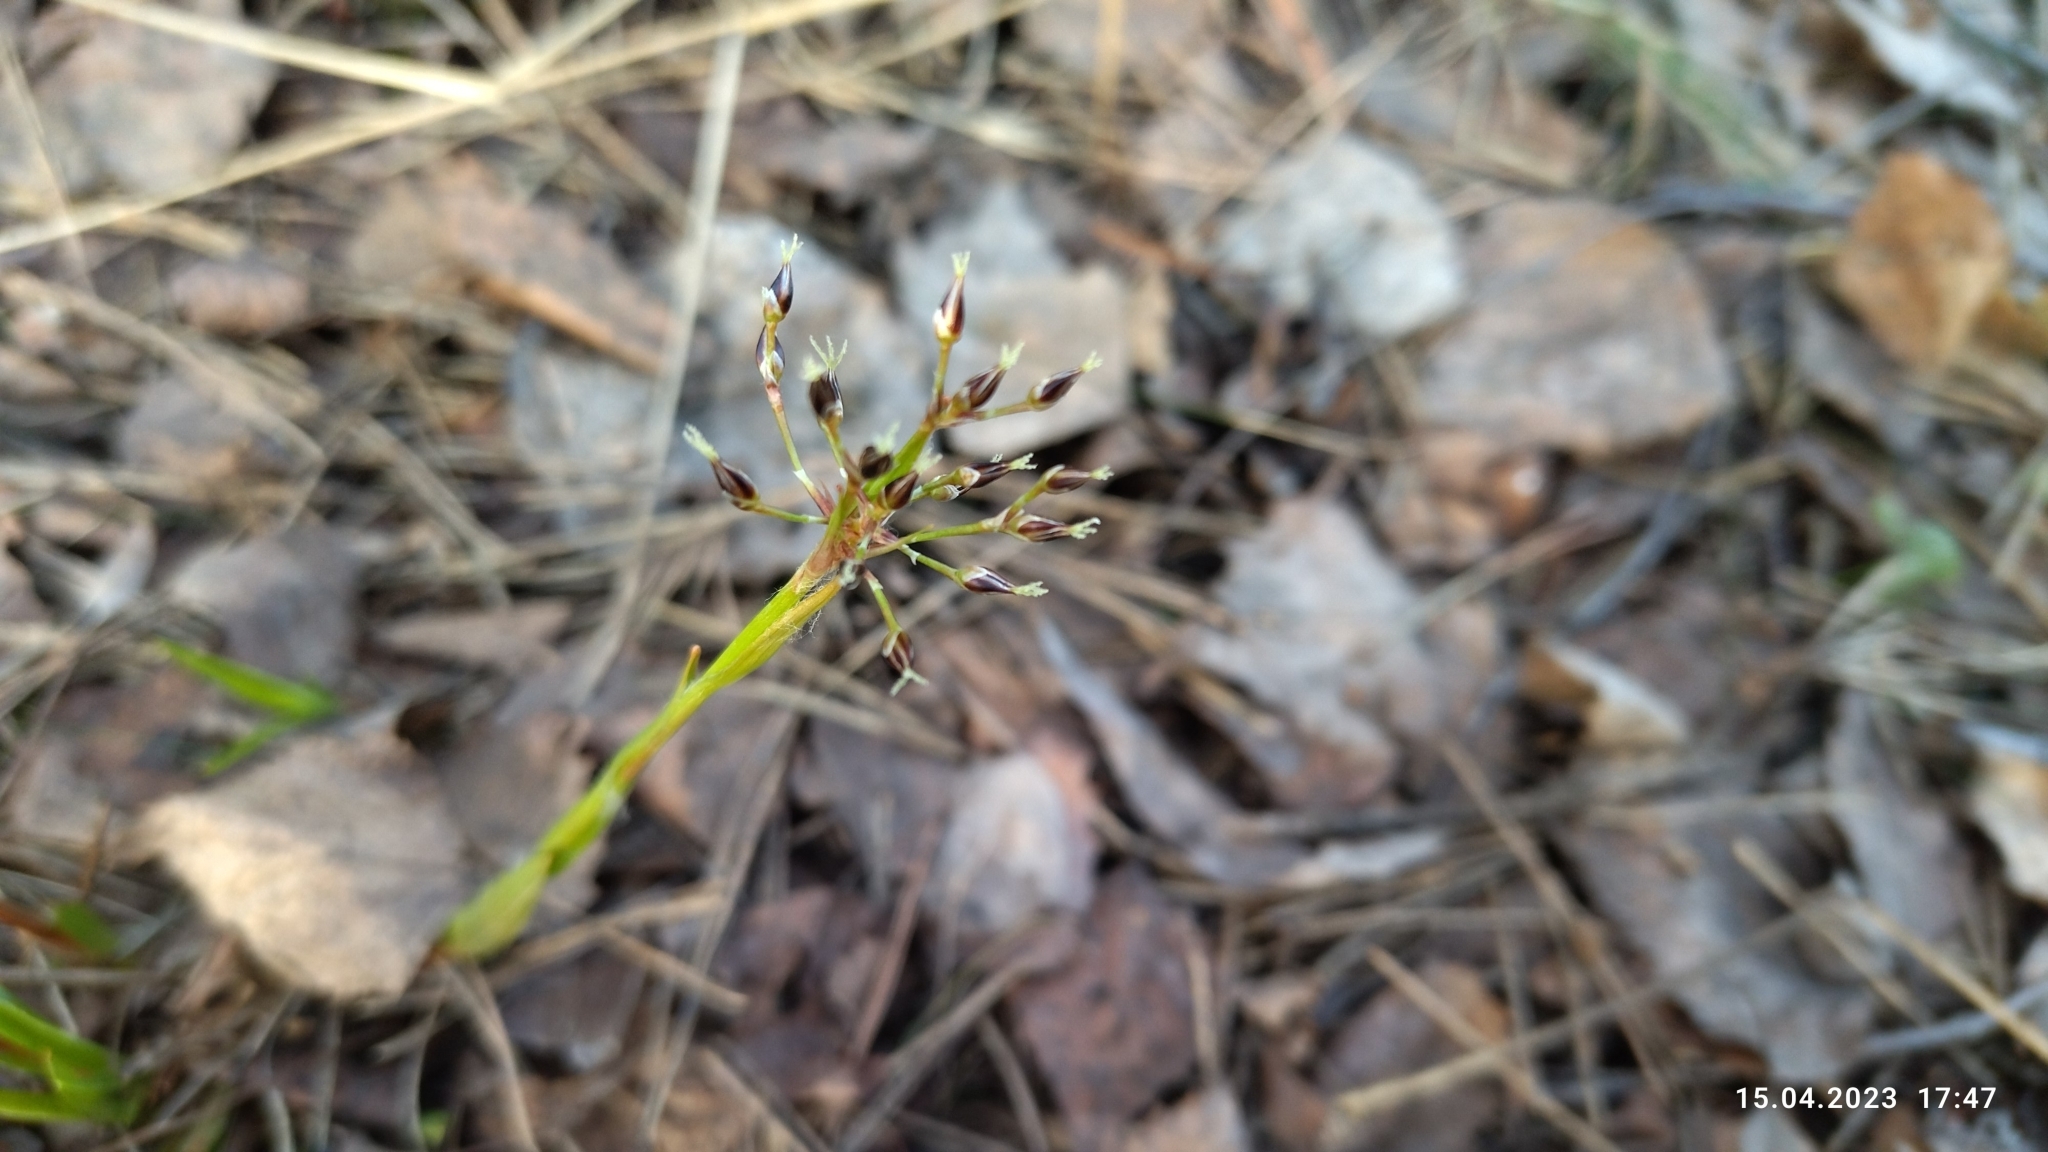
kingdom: Plantae
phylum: Tracheophyta
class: Liliopsida
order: Poales
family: Juncaceae
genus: Luzula
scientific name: Luzula pilosa
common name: Hairy wood-rush
